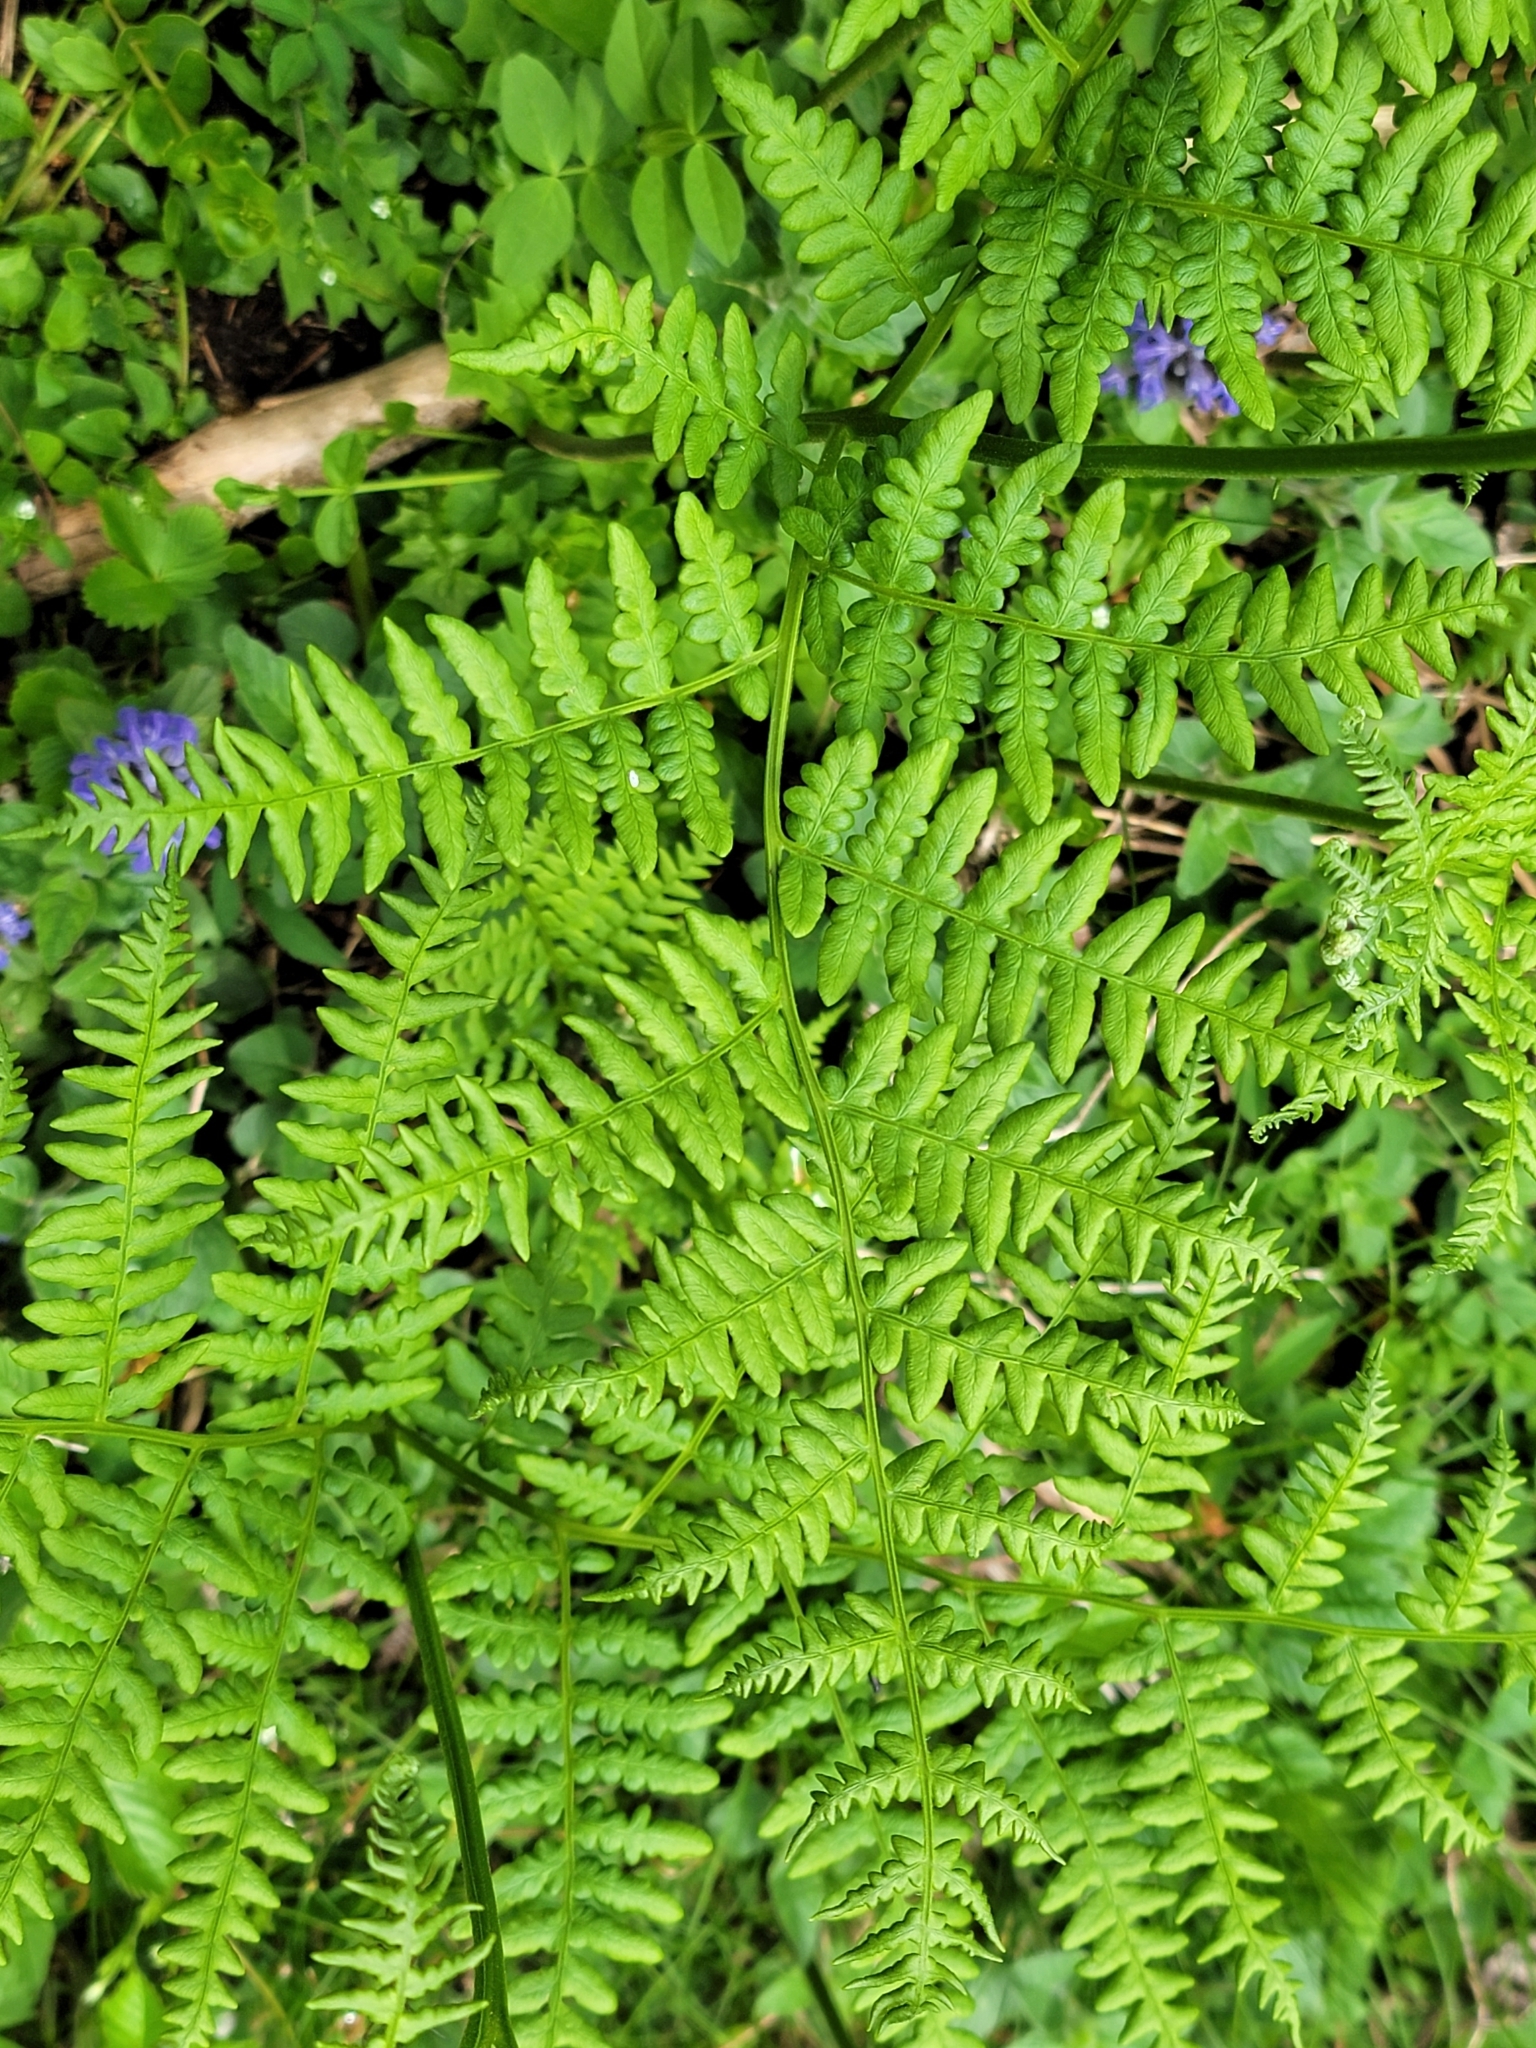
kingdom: Plantae
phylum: Tracheophyta
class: Polypodiopsida
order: Polypodiales
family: Dennstaedtiaceae
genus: Pteridium
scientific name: Pteridium aquilinum
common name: Bracken
